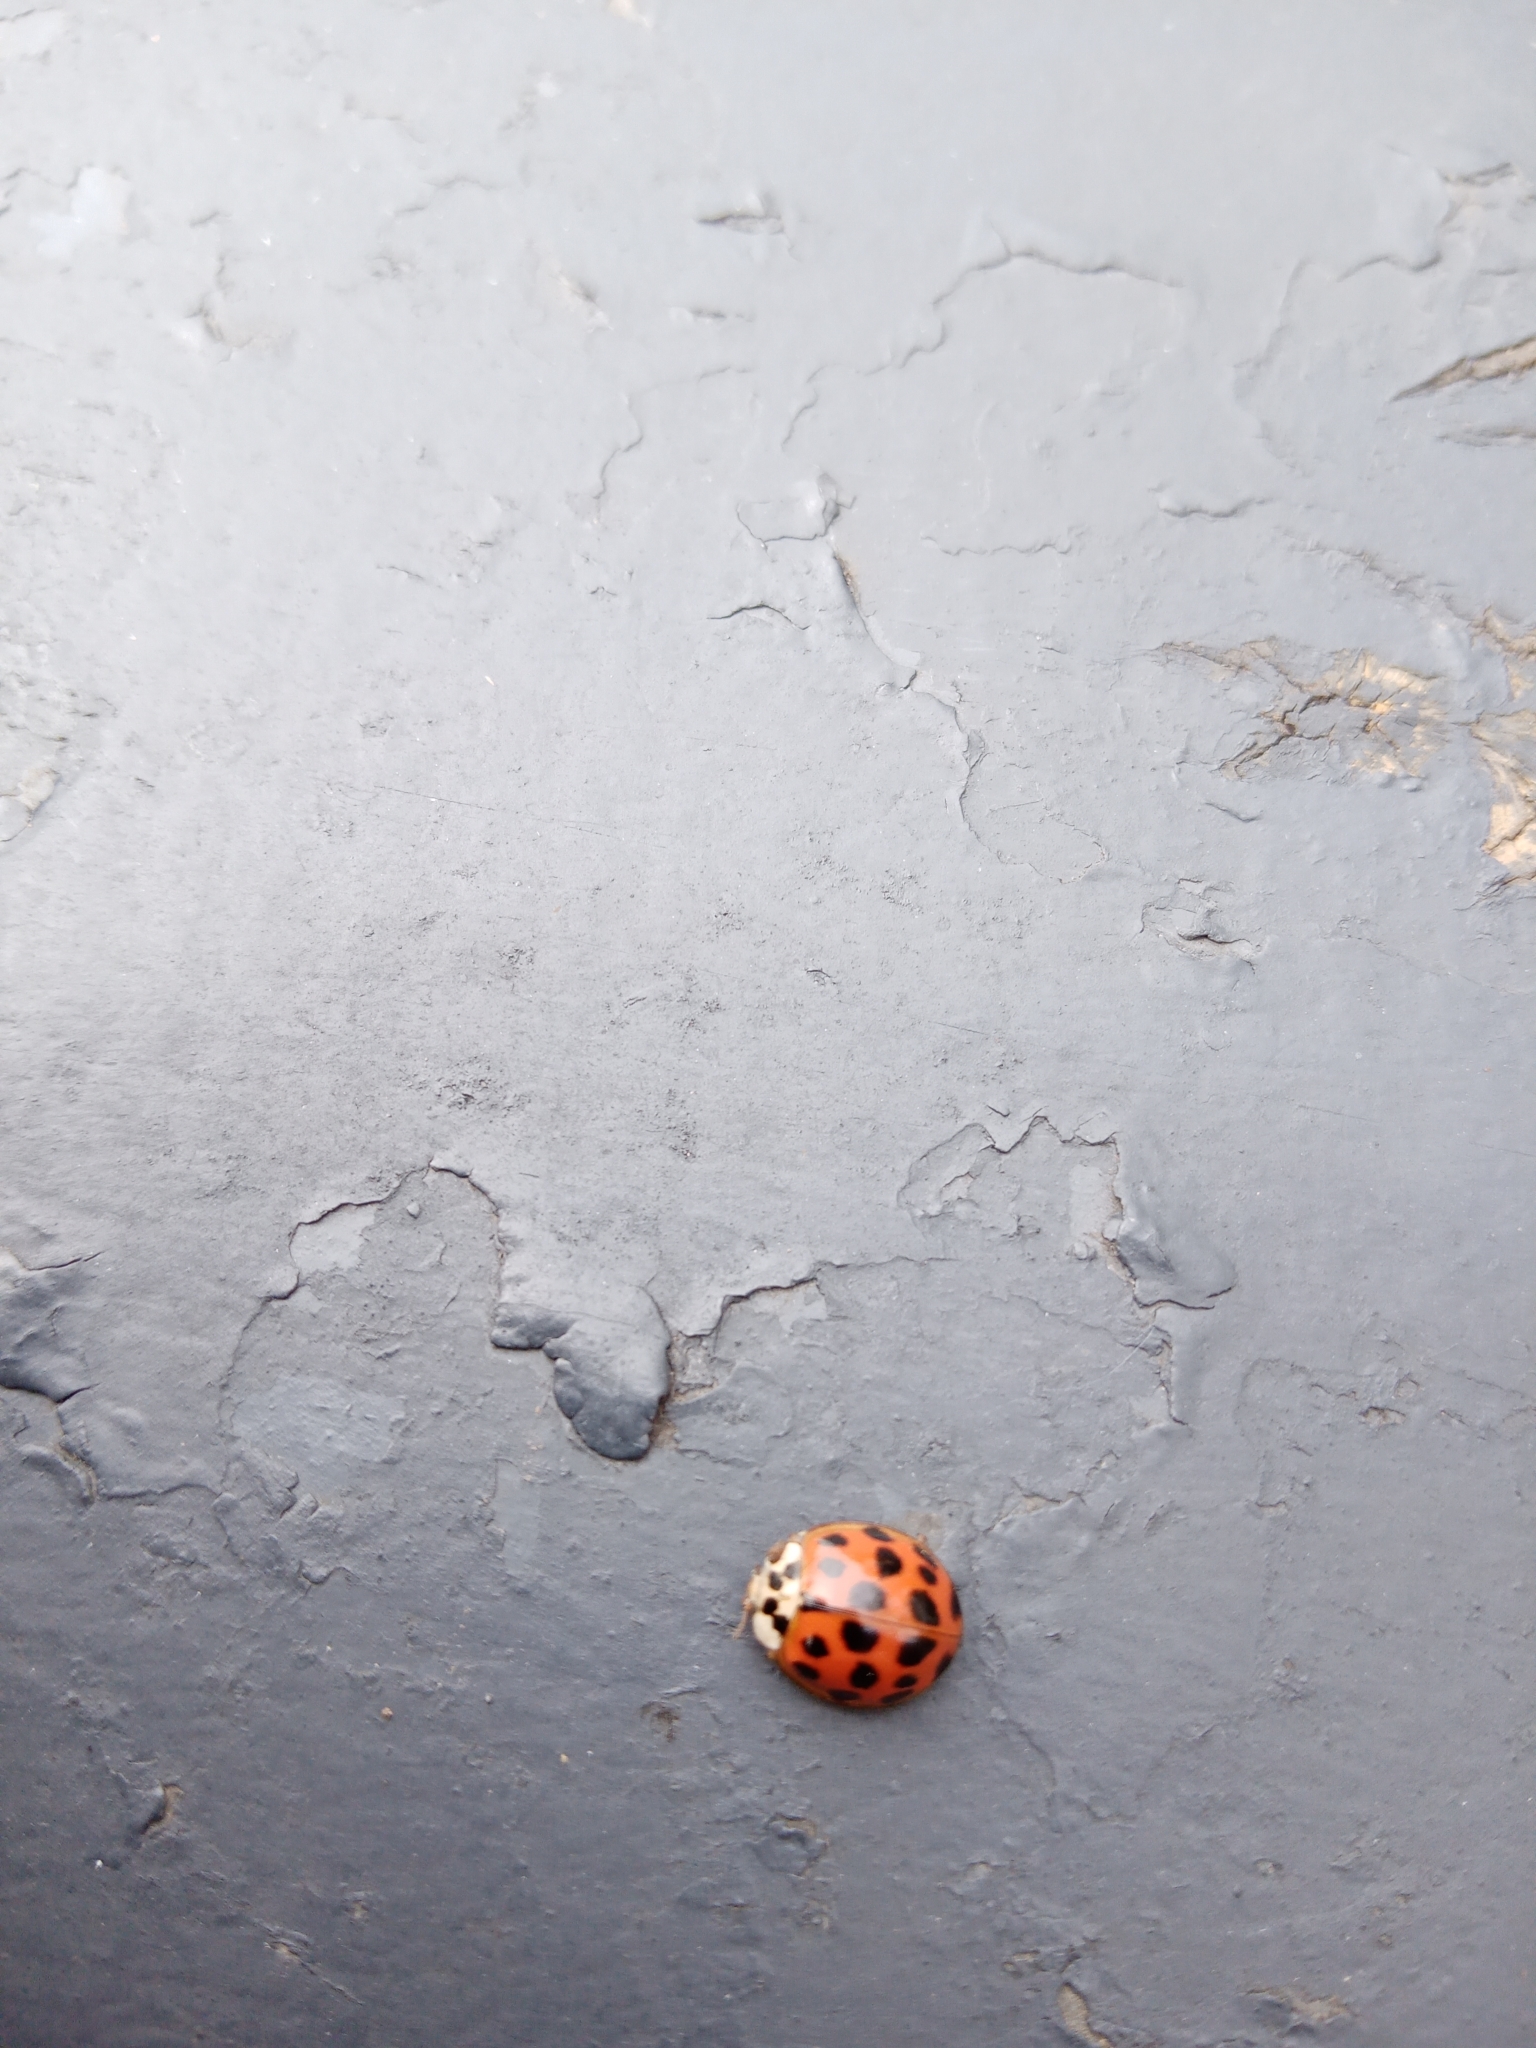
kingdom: Animalia
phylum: Arthropoda
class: Insecta
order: Coleoptera
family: Coccinellidae
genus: Harmonia
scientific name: Harmonia axyridis
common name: Harlequin ladybird
